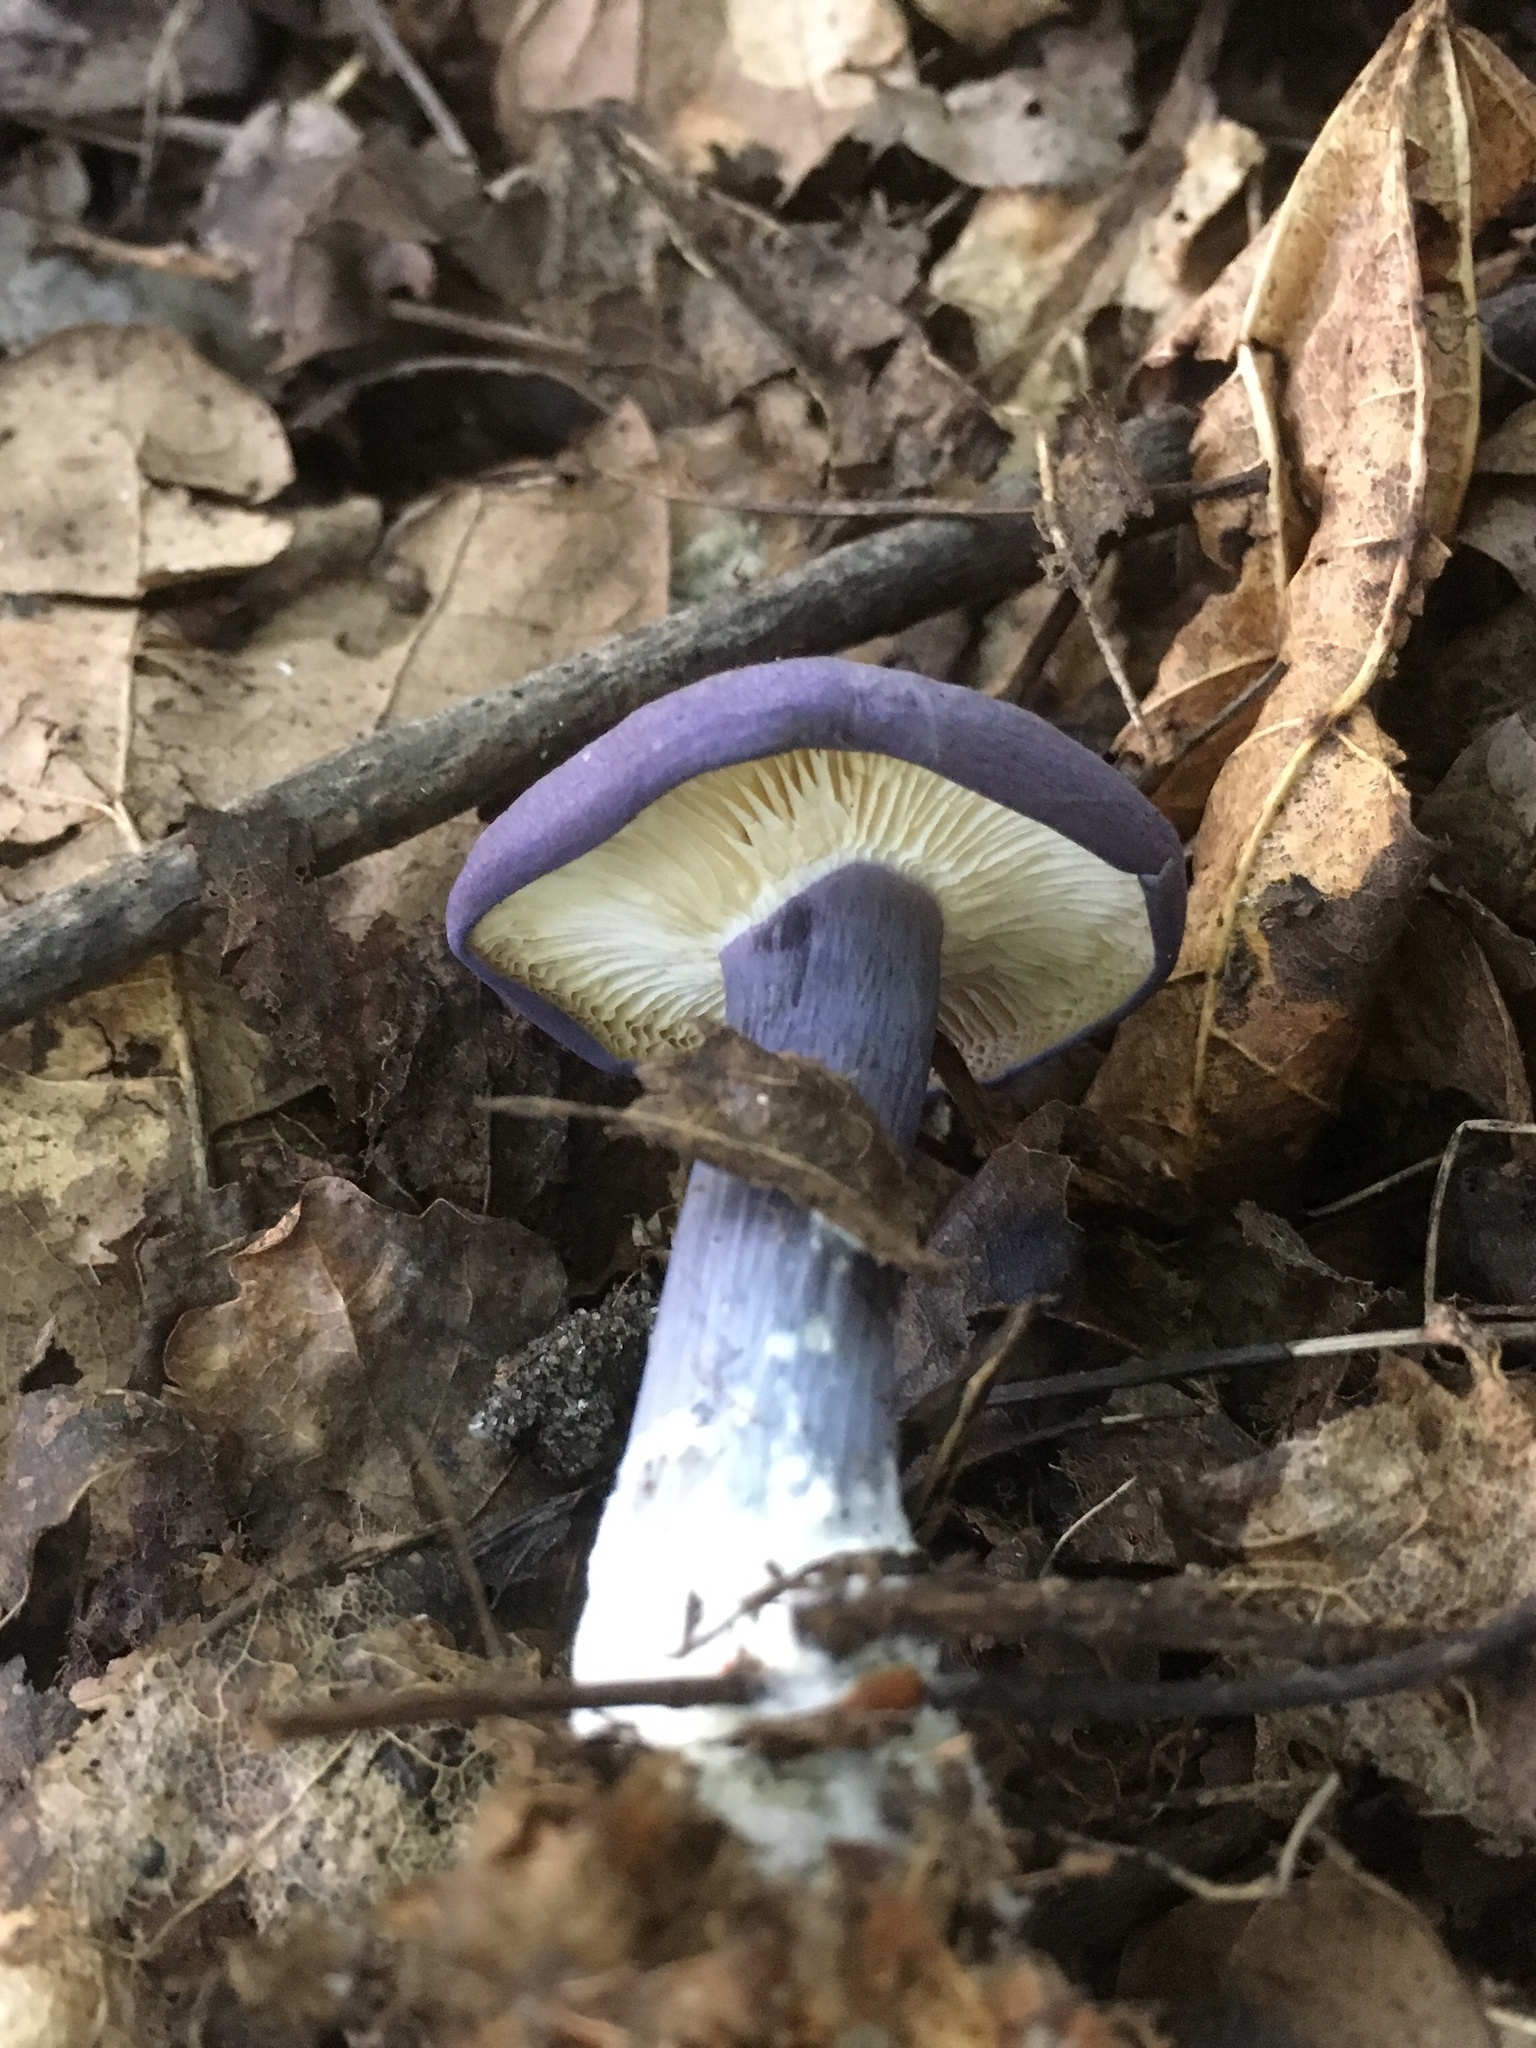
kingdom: Fungi
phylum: Basidiomycota
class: Agaricomycetes
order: Agaricales
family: Lyophyllaceae
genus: Calocybe
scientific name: Calocybe ionides
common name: Violet domecap
